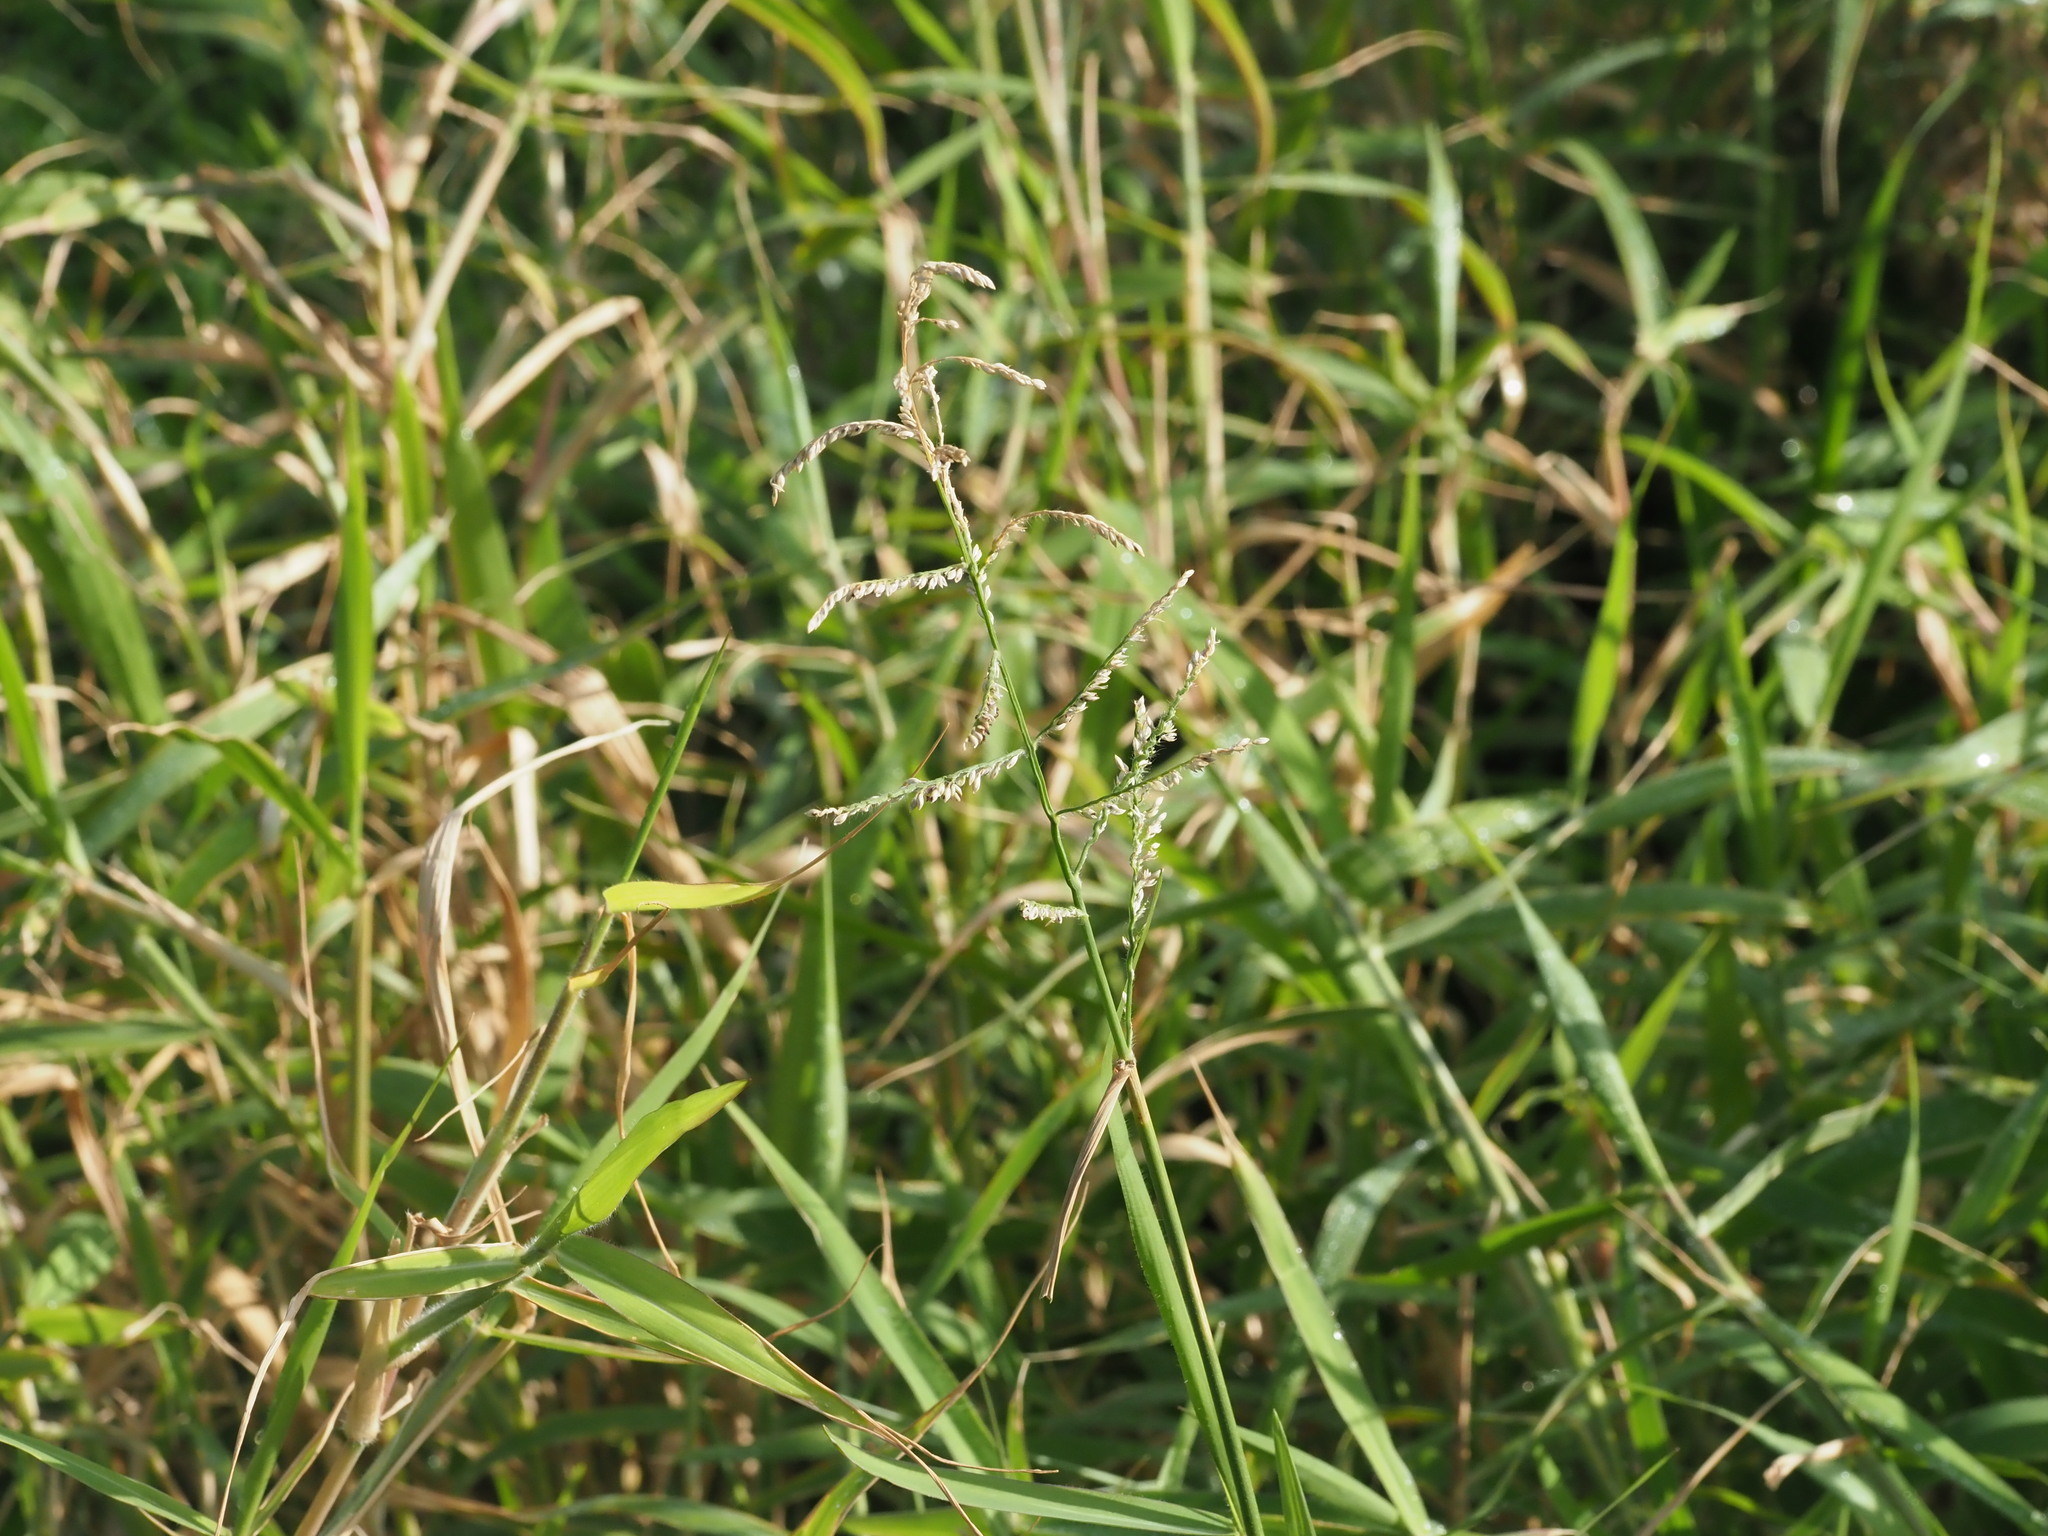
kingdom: Plantae
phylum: Tracheophyta
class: Liliopsida
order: Poales
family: Poaceae
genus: Urochloa
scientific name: Urochloa mutica
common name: Para grass
